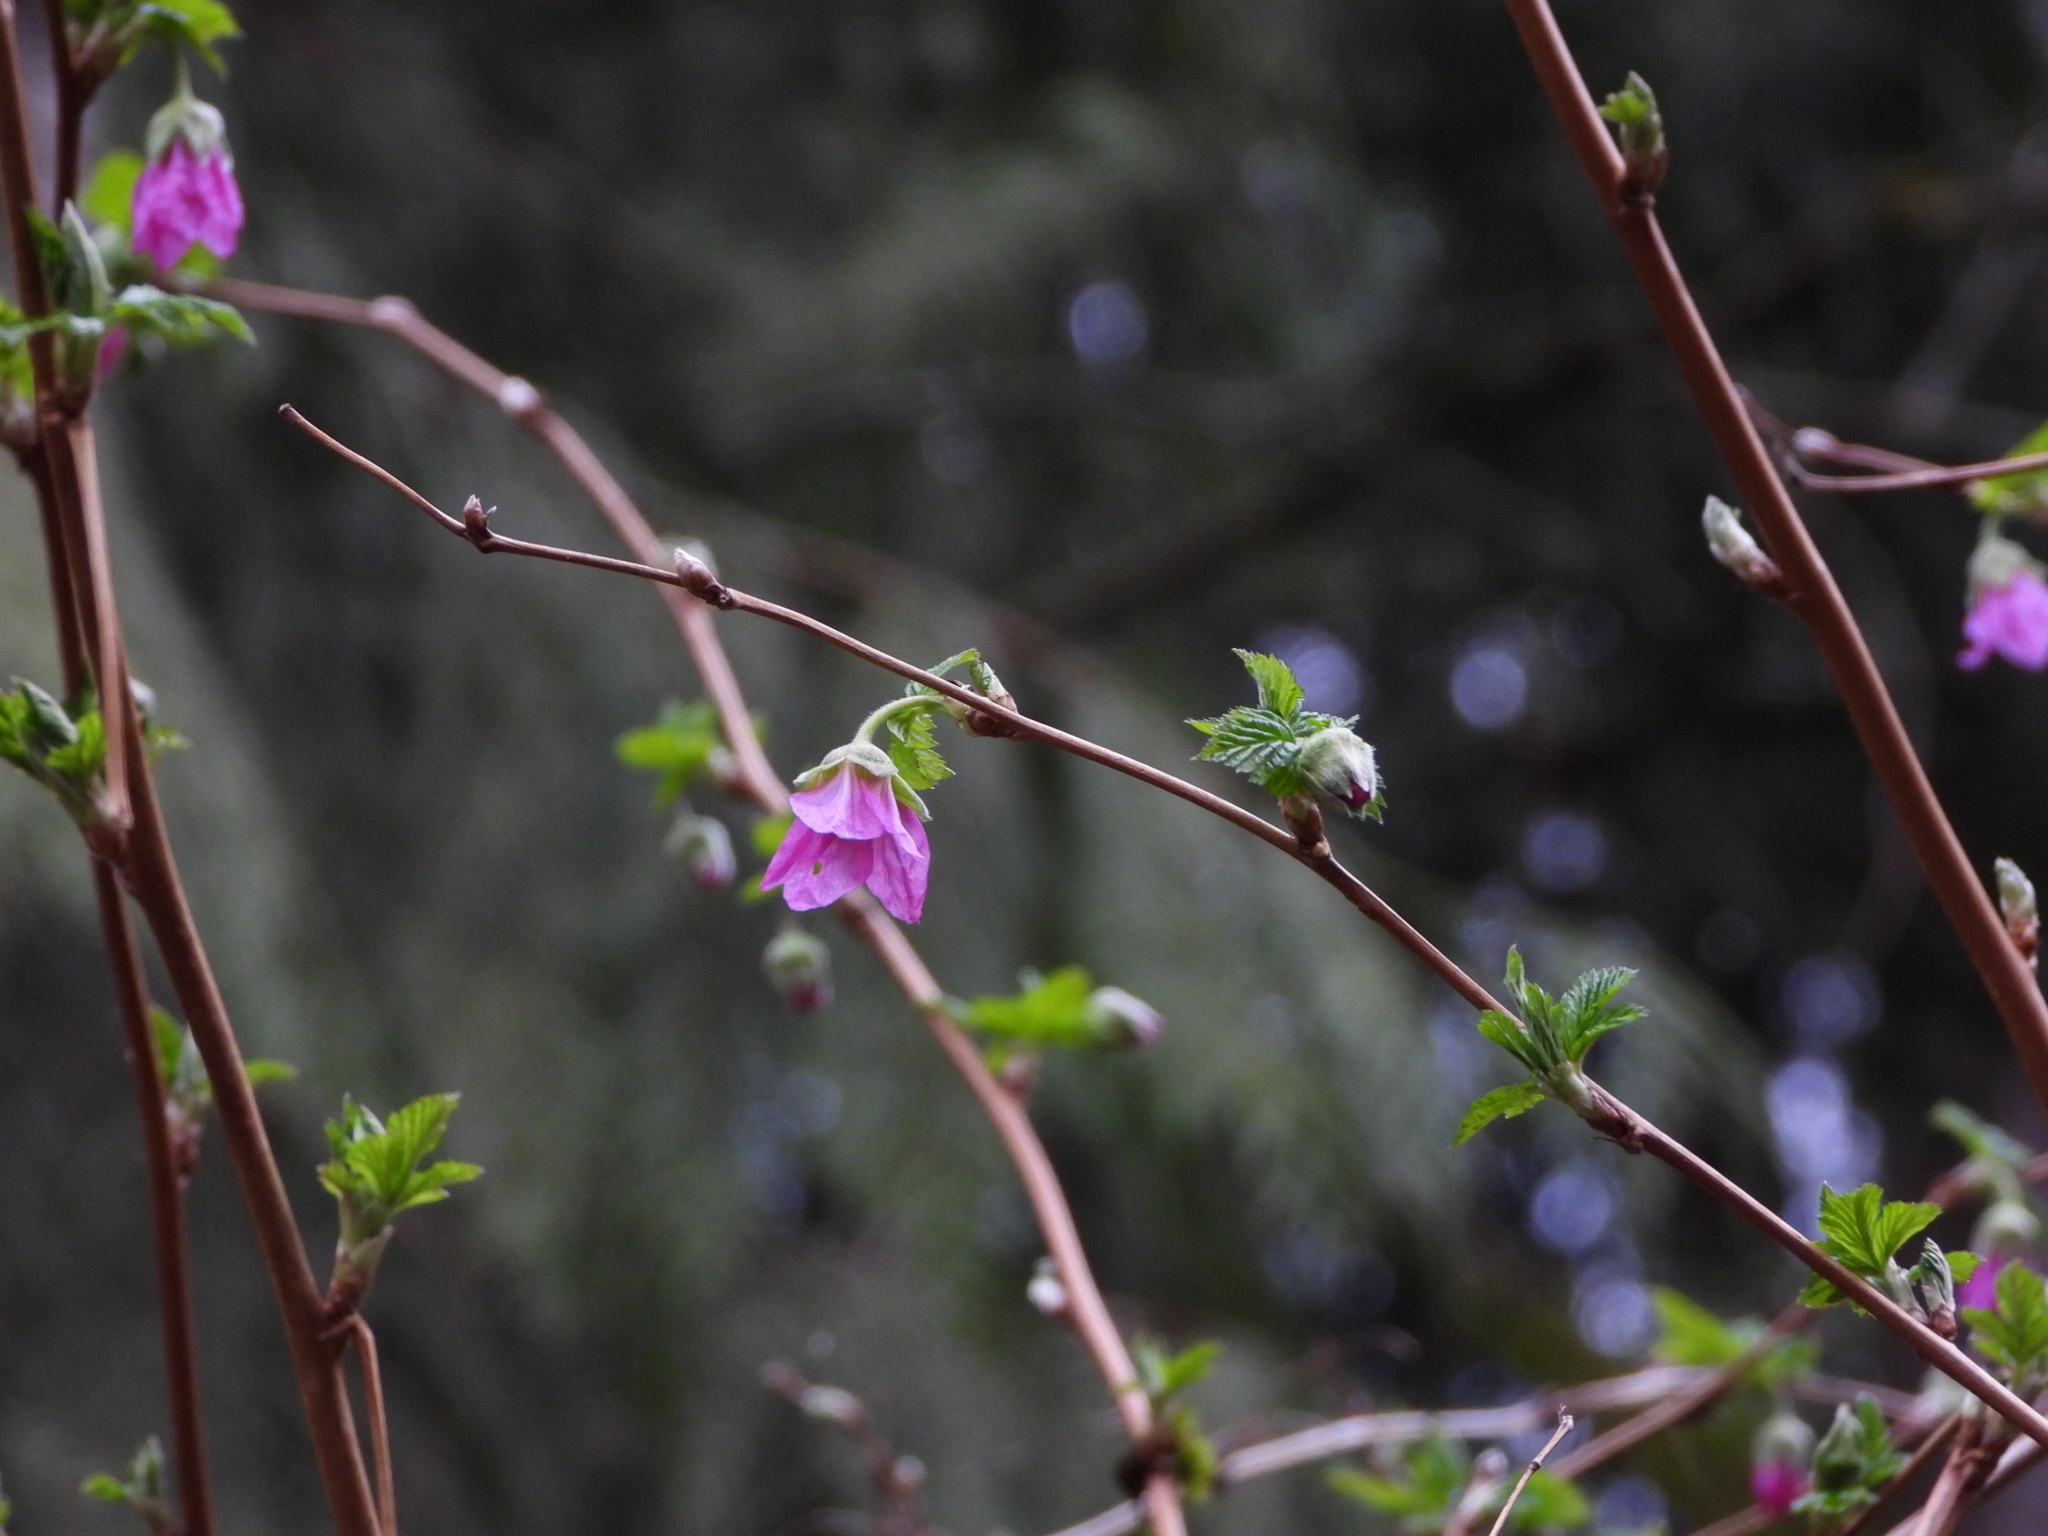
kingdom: Plantae
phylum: Tracheophyta
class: Magnoliopsida
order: Rosales
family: Rosaceae
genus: Rubus
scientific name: Rubus spectabilis
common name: Salmonberry
